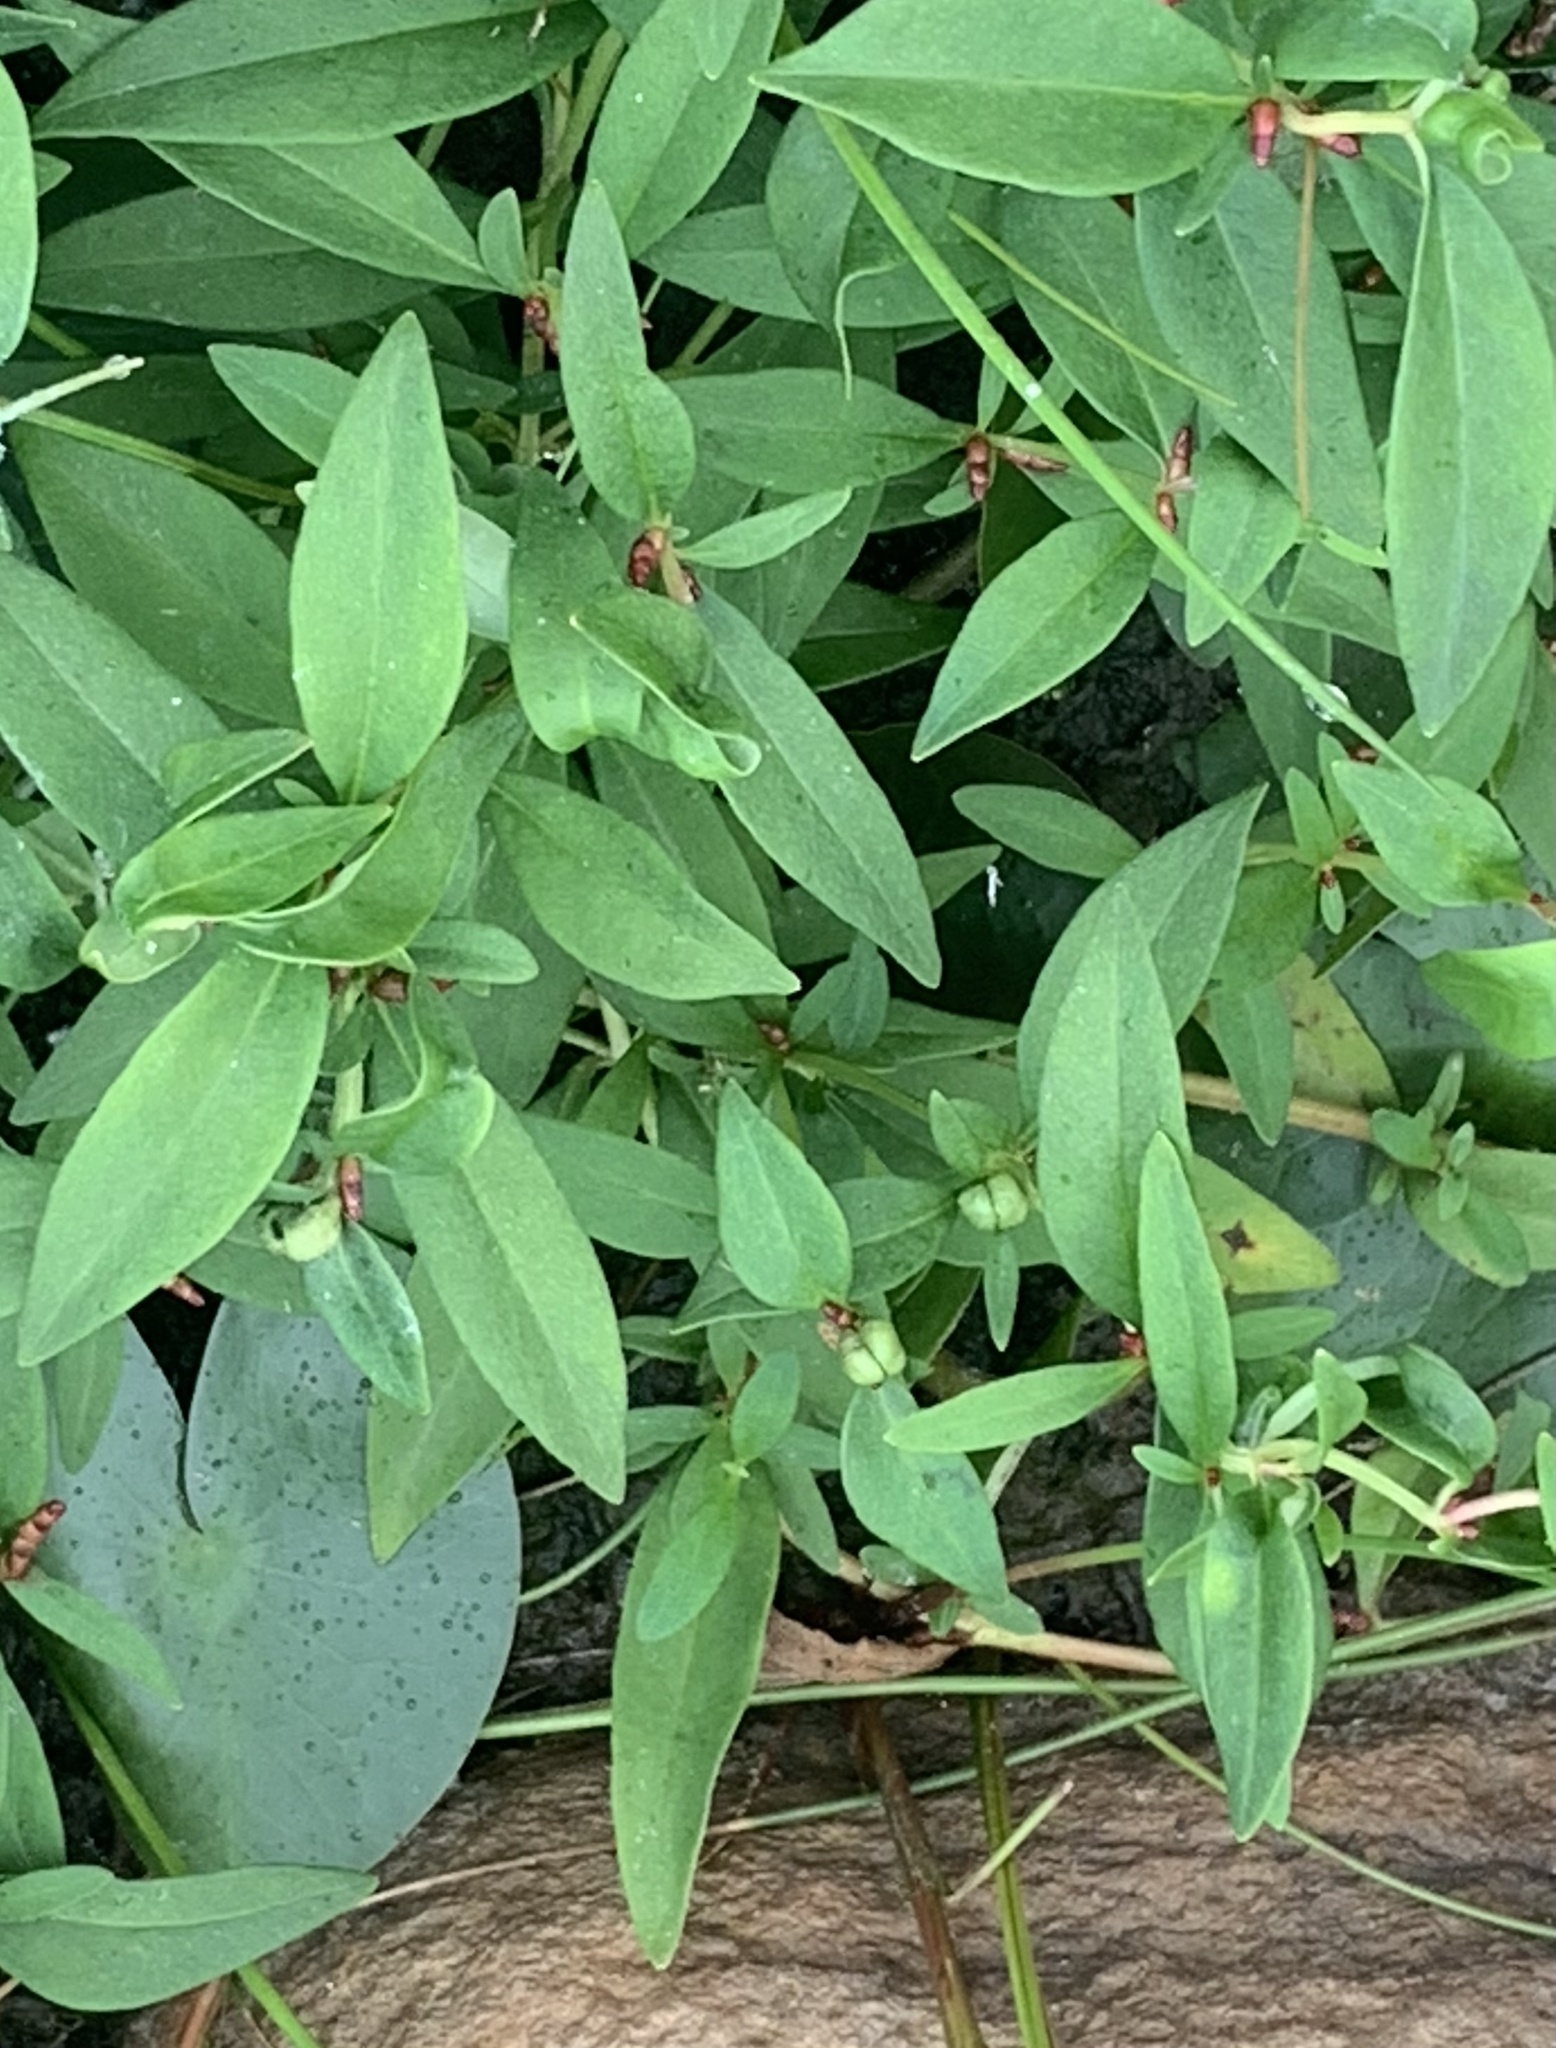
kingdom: Plantae
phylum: Tracheophyta
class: Magnoliopsida
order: Ericales
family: Primulaceae
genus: Lysimachia
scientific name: Lysimachia terrestris
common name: Lake loosestrife
